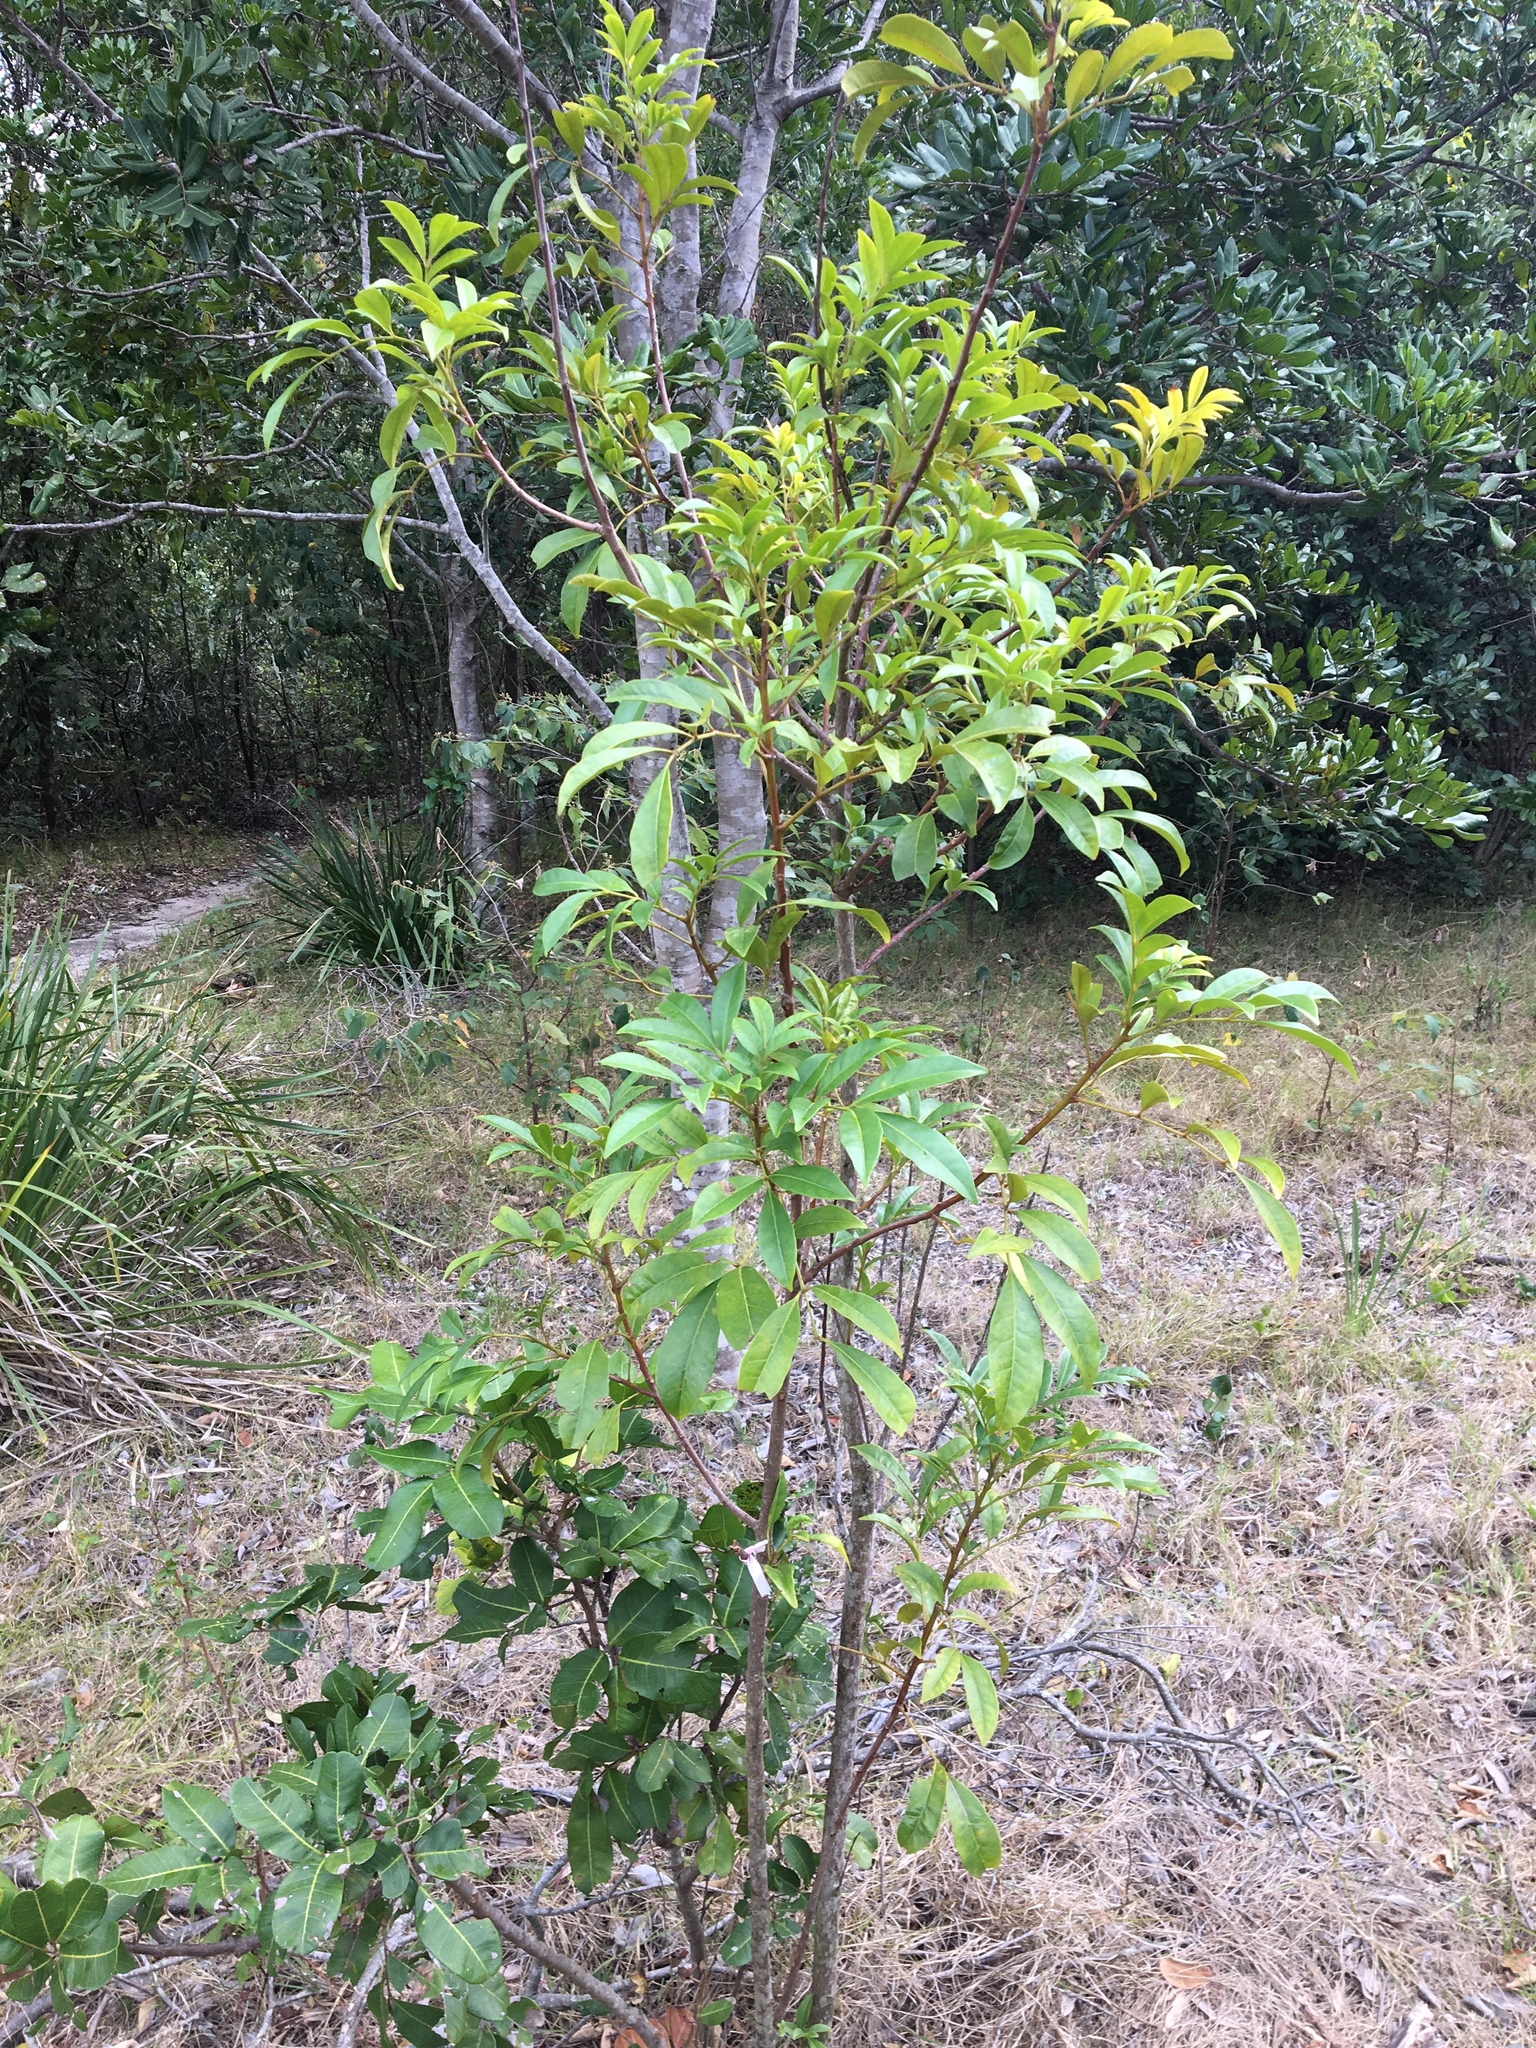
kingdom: Plantae
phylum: Tracheophyta
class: Magnoliopsida
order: Sapindales
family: Meliaceae
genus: Synoum
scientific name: Synoum glandulosum
